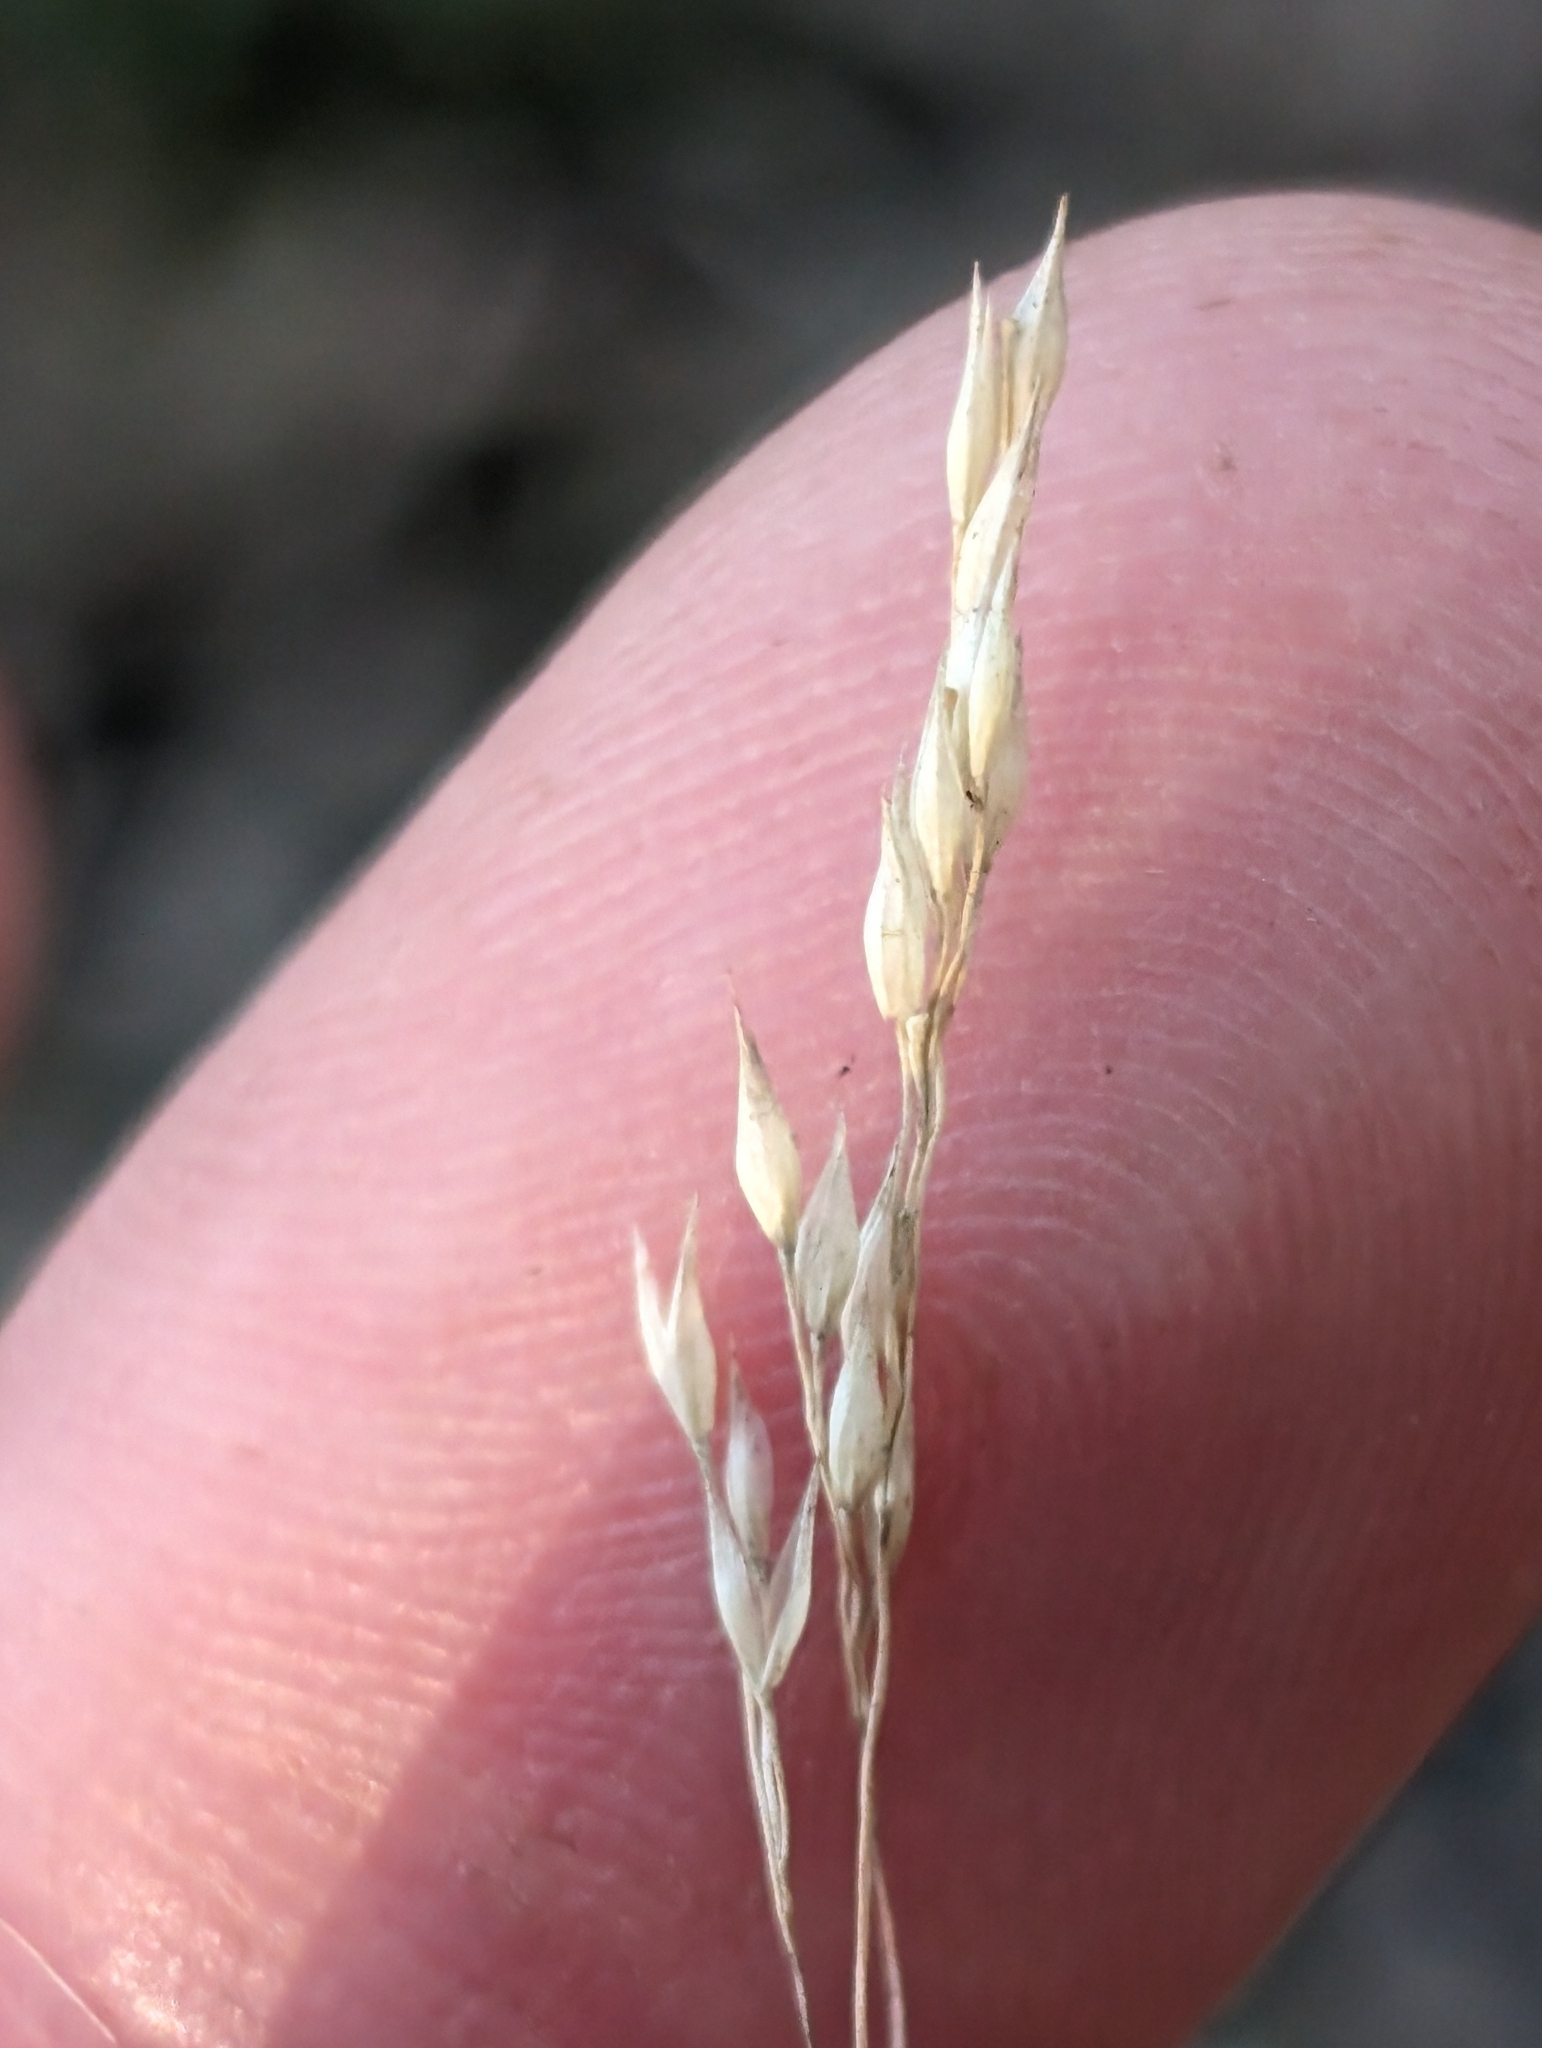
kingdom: Plantae
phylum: Tracheophyta
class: Liliopsida
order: Poales
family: Poaceae
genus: Oloptum
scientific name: Oloptum miliaceum
